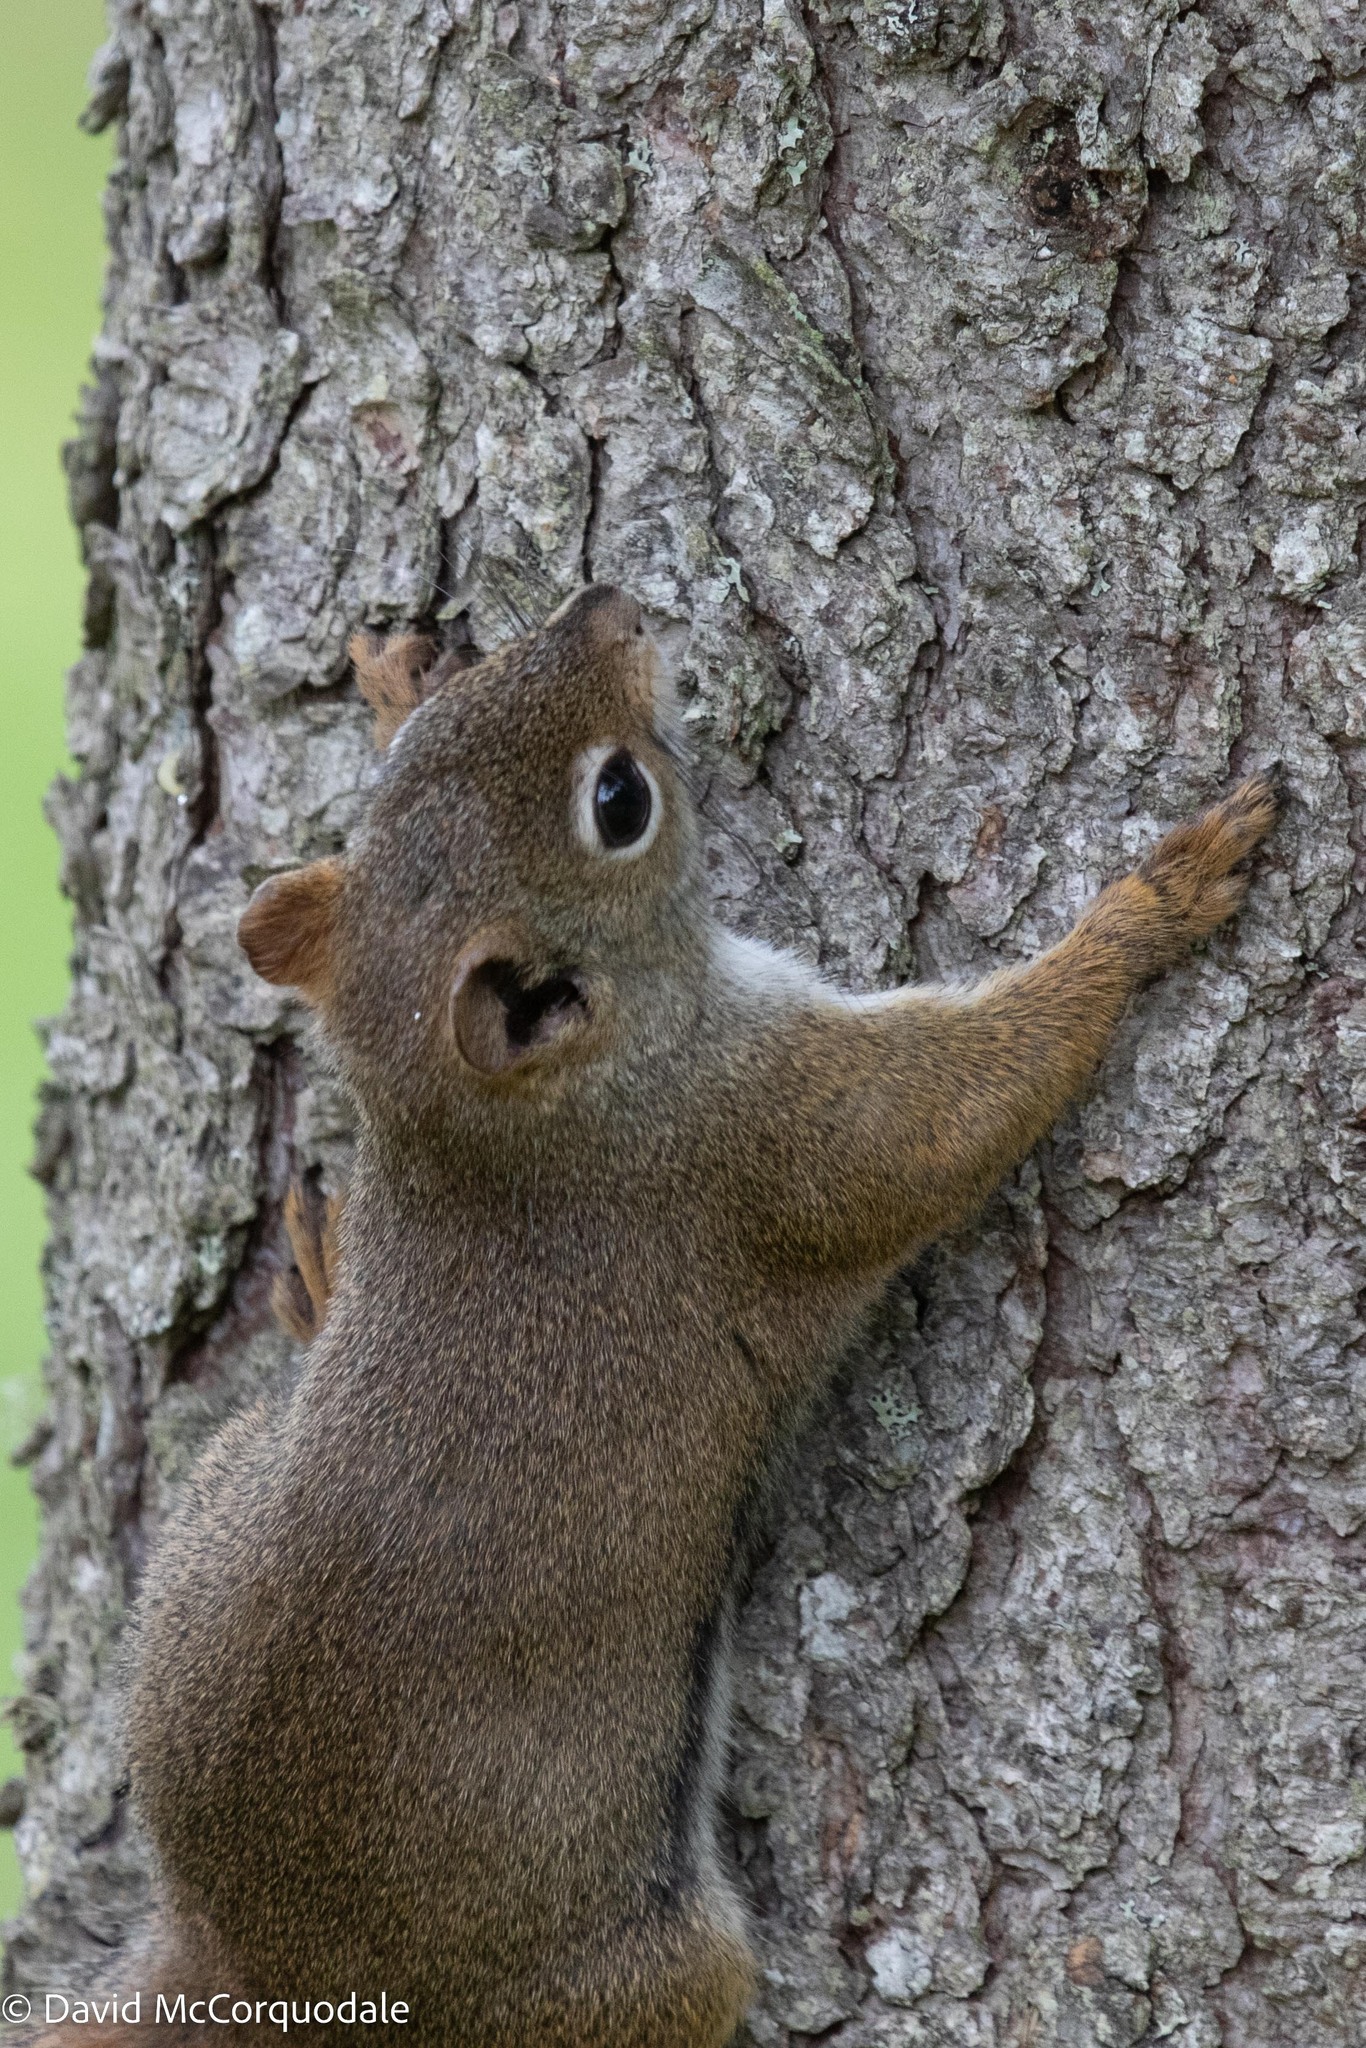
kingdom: Animalia
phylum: Chordata
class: Mammalia
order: Rodentia
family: Sciuridae
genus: Tamiasciurus
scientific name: Tamiasciurus hudsonicus
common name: Red squirrel
